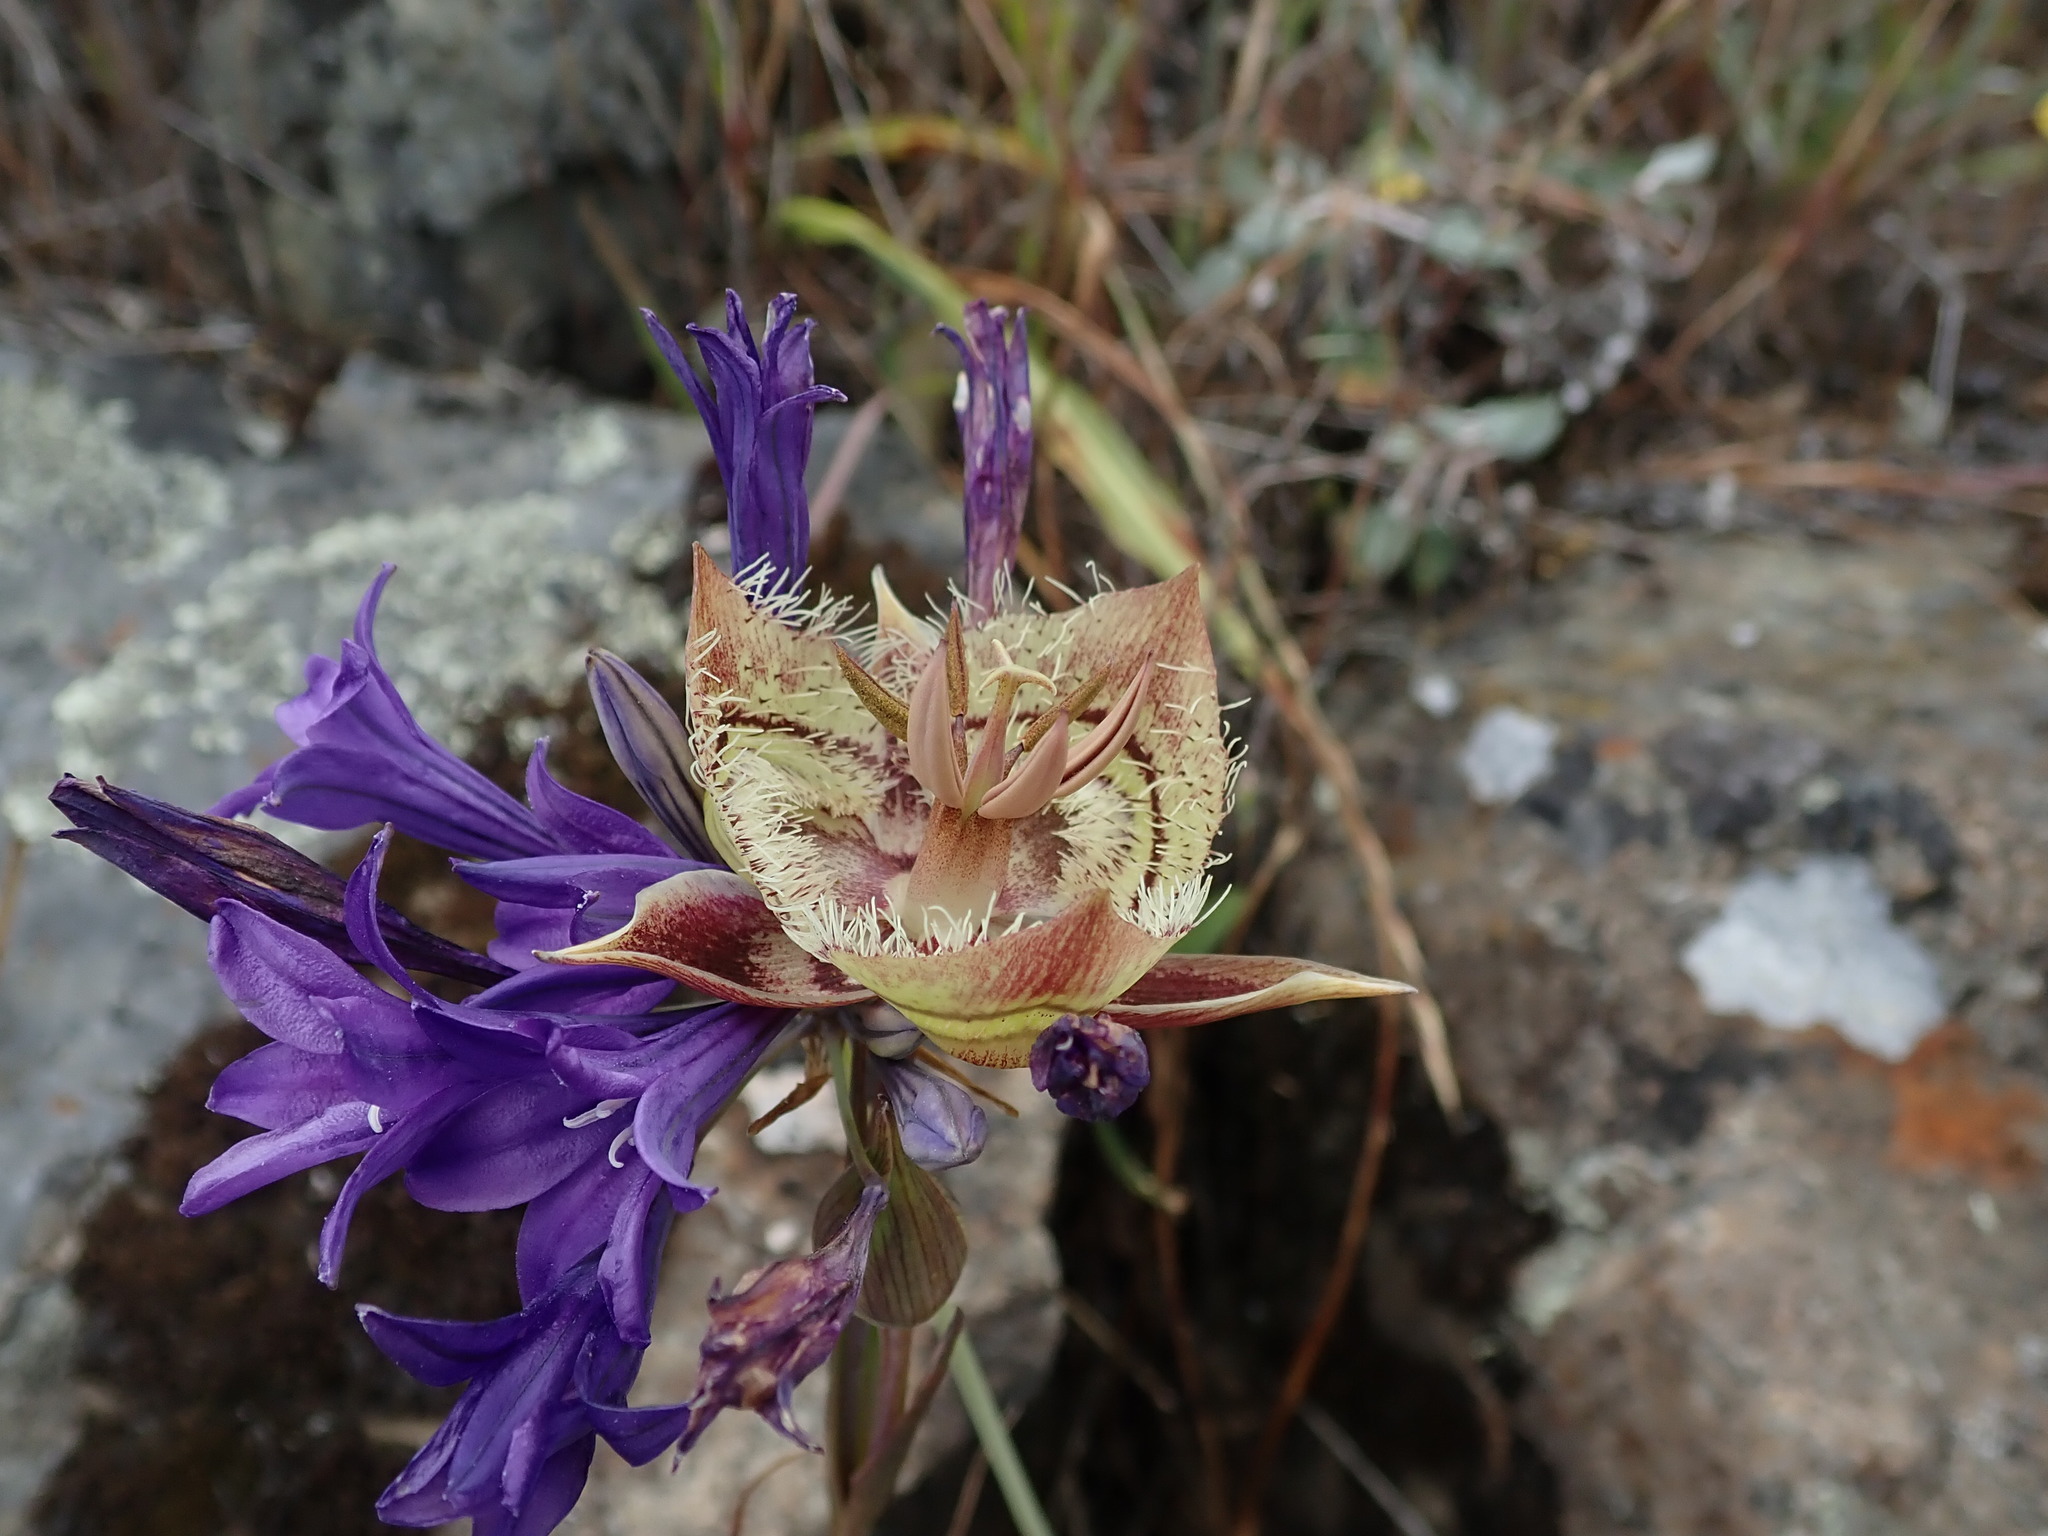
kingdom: Plantae
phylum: Tracheophyta
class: Liliopsida
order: Liliales
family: Liliaceae
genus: Calochortus
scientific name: Calochortus tiburonensis
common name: Tiburon mariposa-lily
